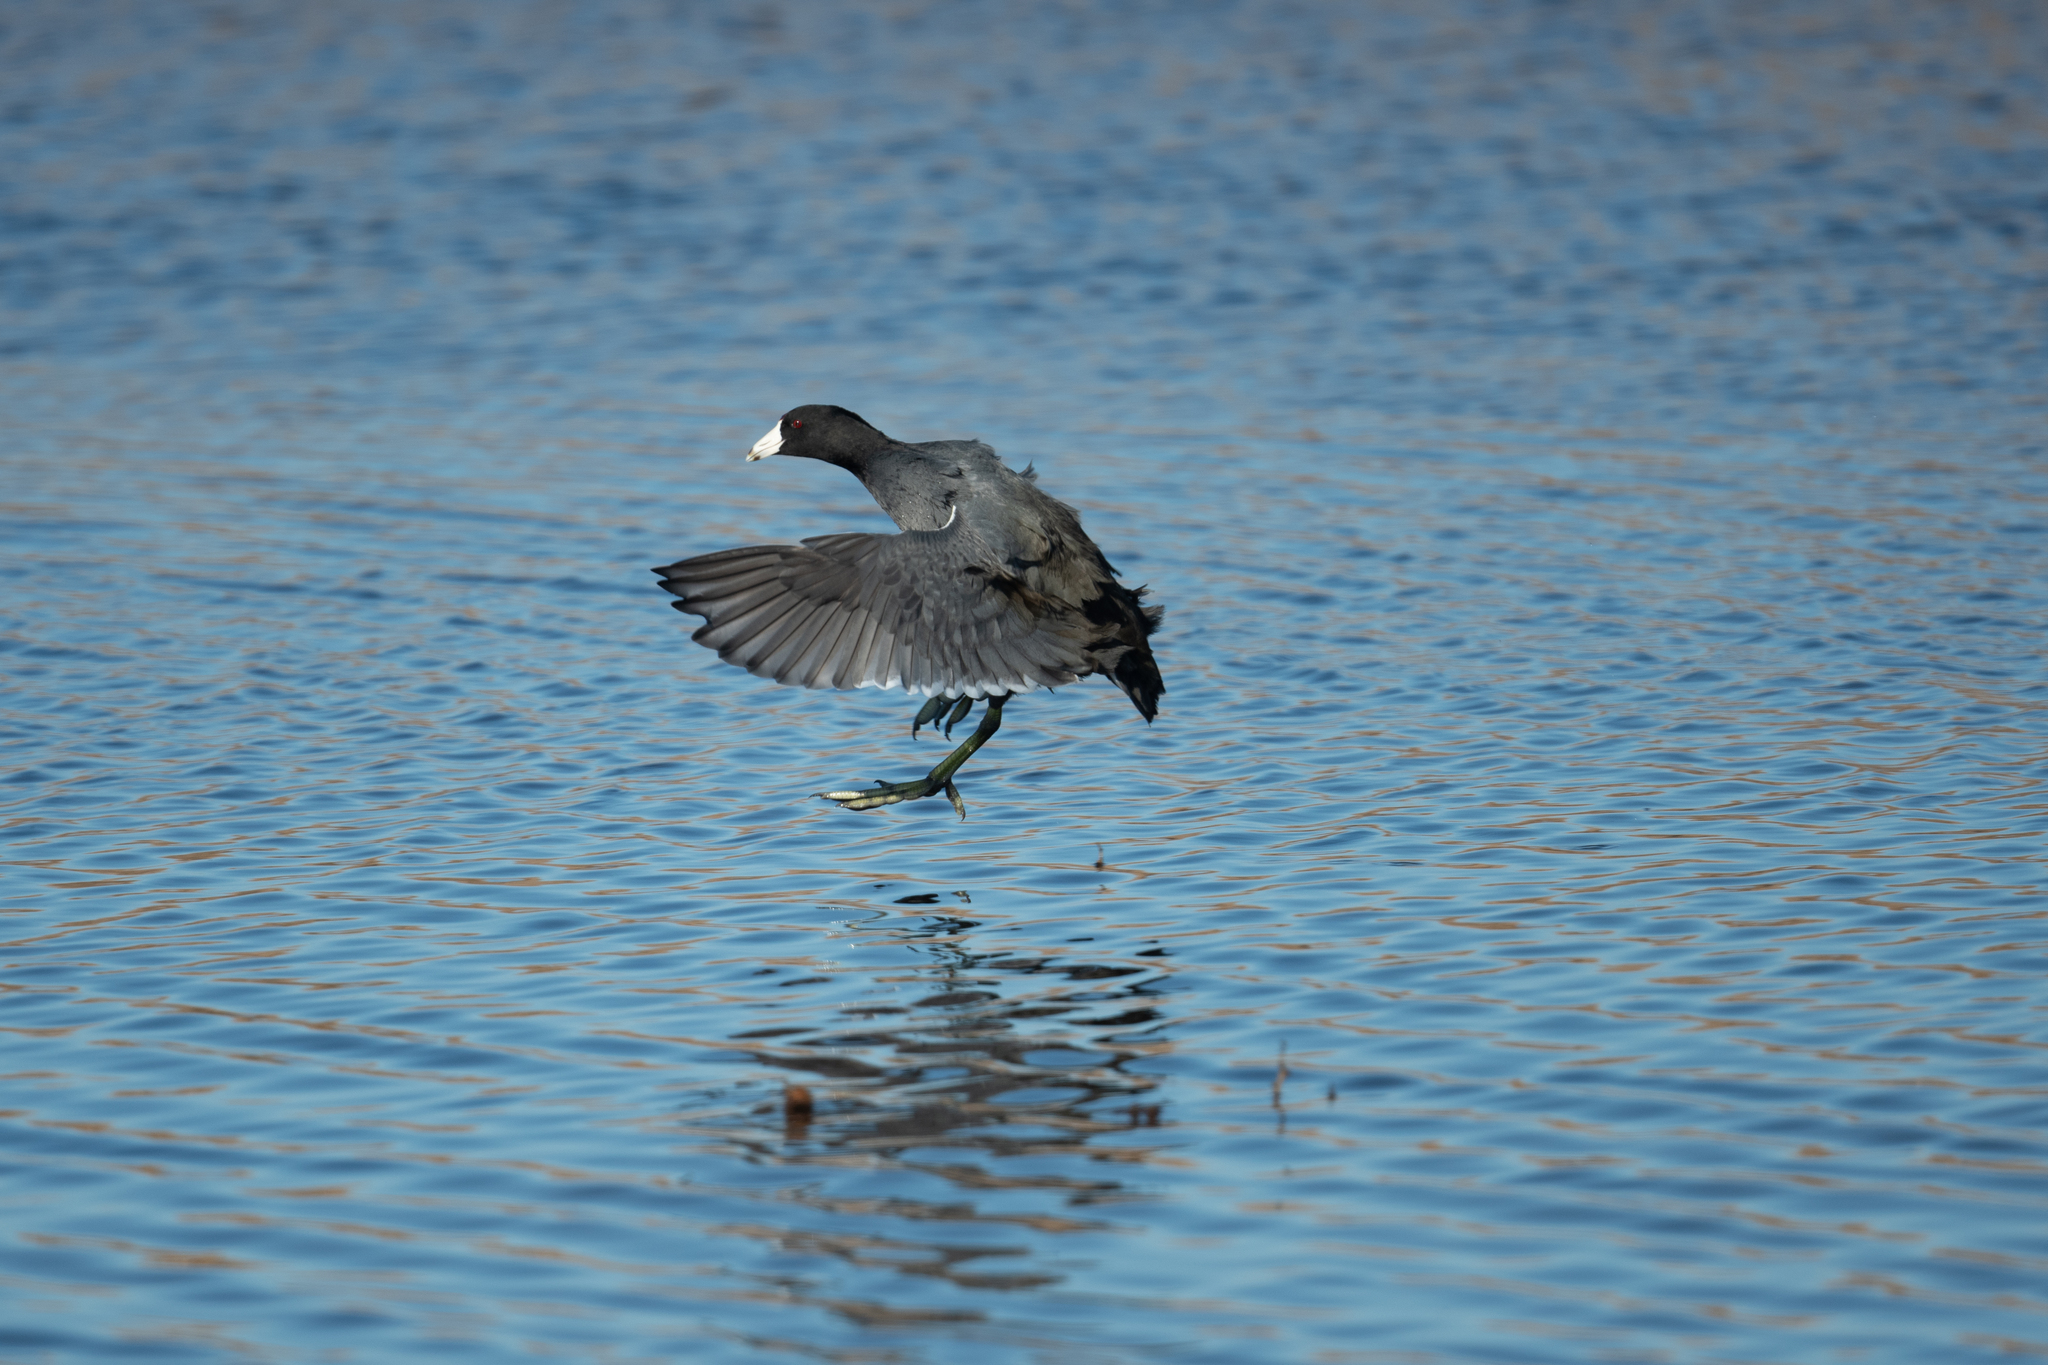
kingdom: Animalia
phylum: Chordata
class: Aves
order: Gruiformes
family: Rallidae
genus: Fulica
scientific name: Fulica americana
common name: American coot
